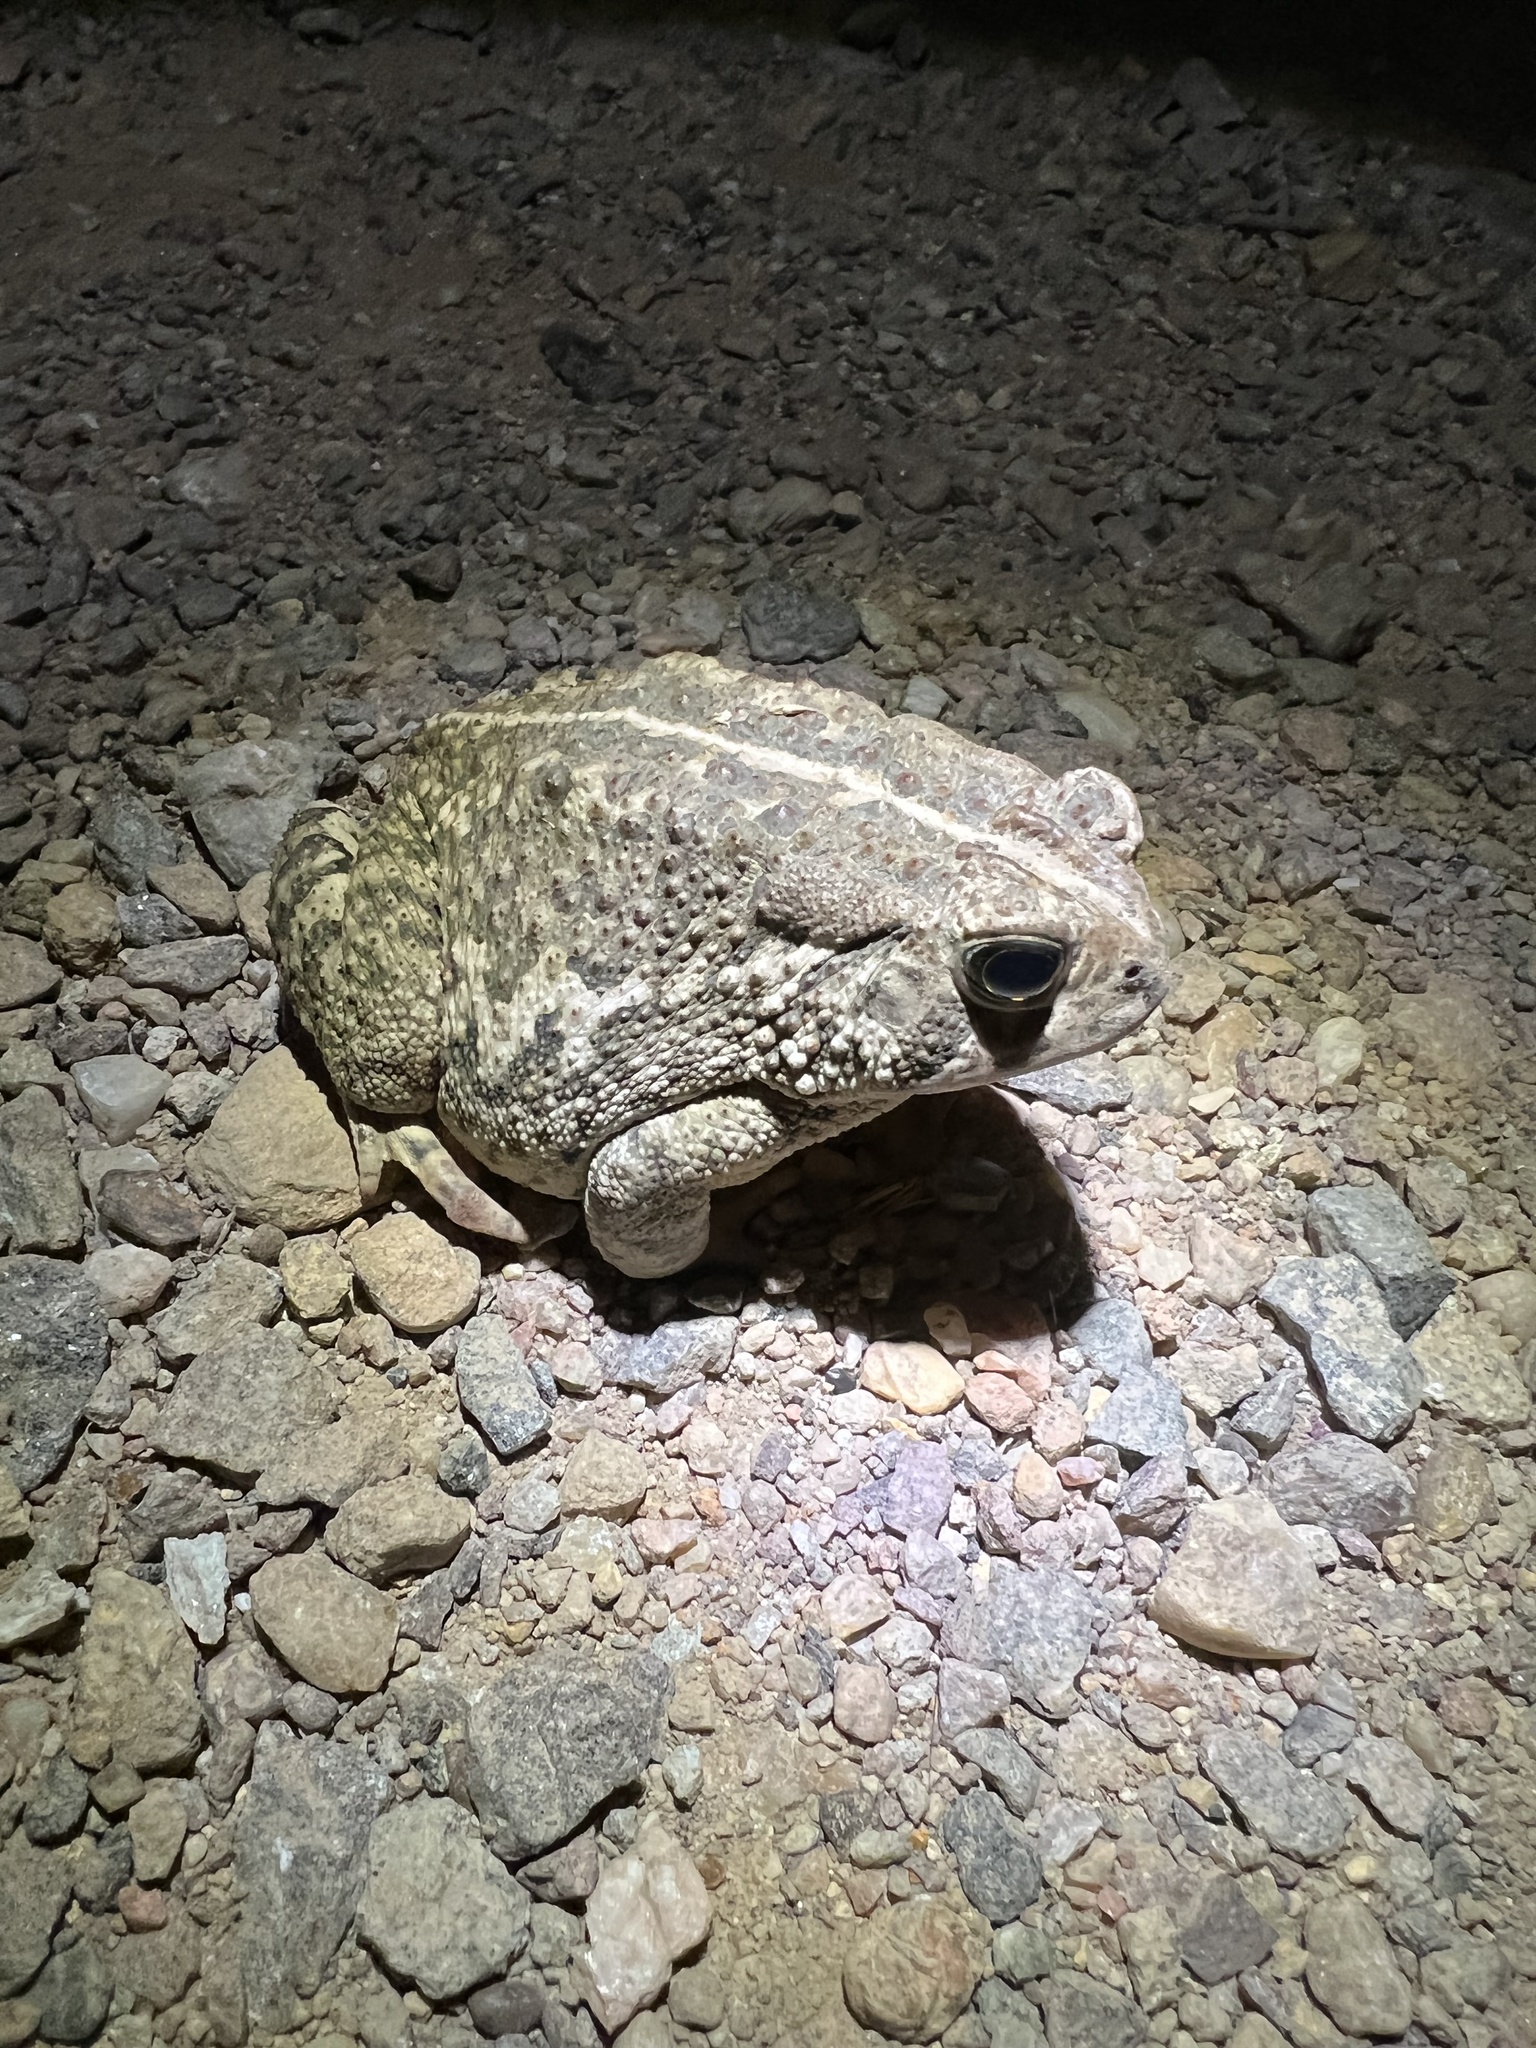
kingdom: Animalia
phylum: Chordata
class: Amphibia
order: Anura
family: Bufonidae
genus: Anaxyrus
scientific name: Anaxyrus woodhousii
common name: Woodhouse's toad
